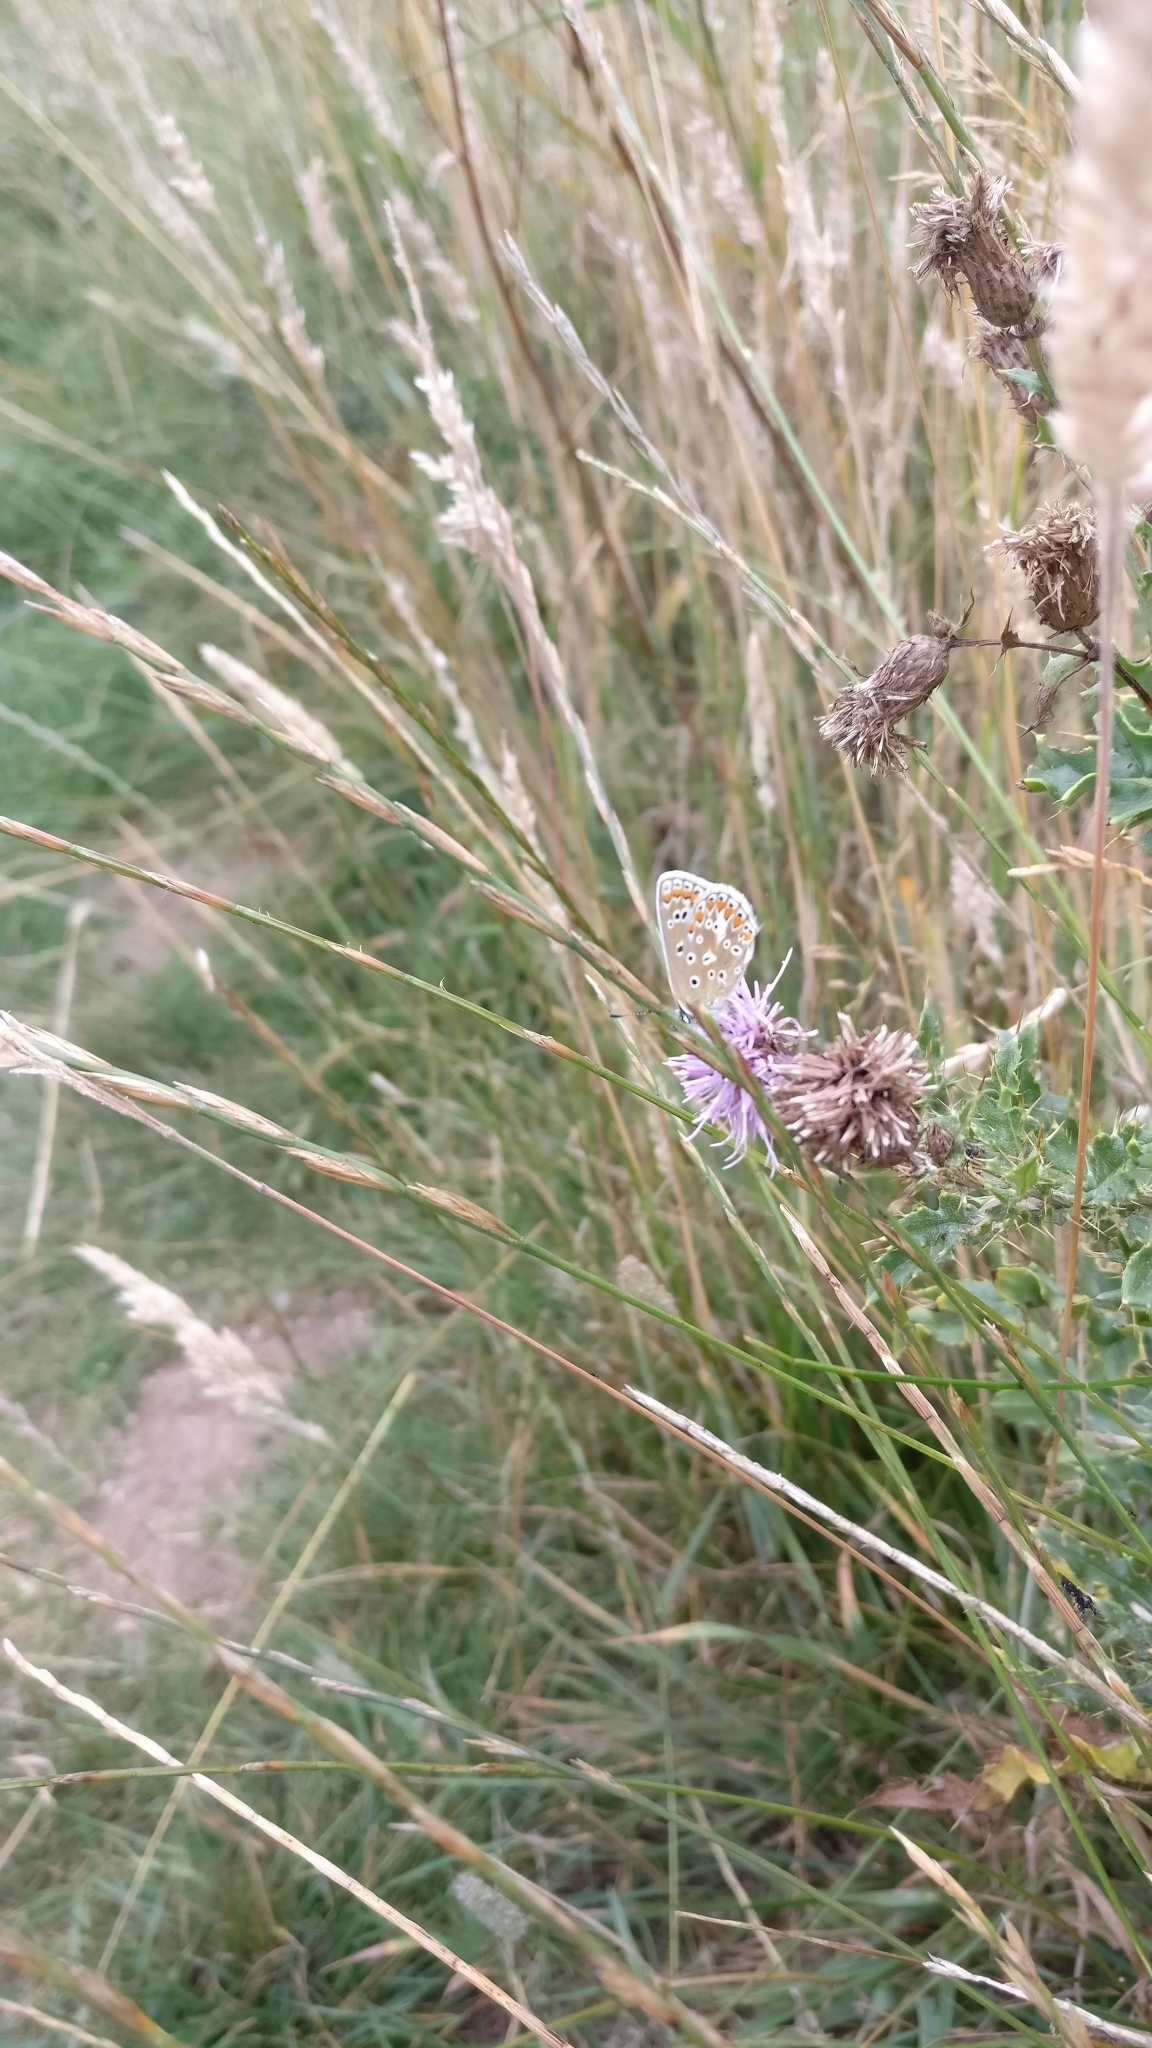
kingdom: Animalia
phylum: Arthropoda
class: Insecta
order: Lepidoptera
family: Lycaenidae
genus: Polyommatus
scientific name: Polyommatus icarus
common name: Common blue
